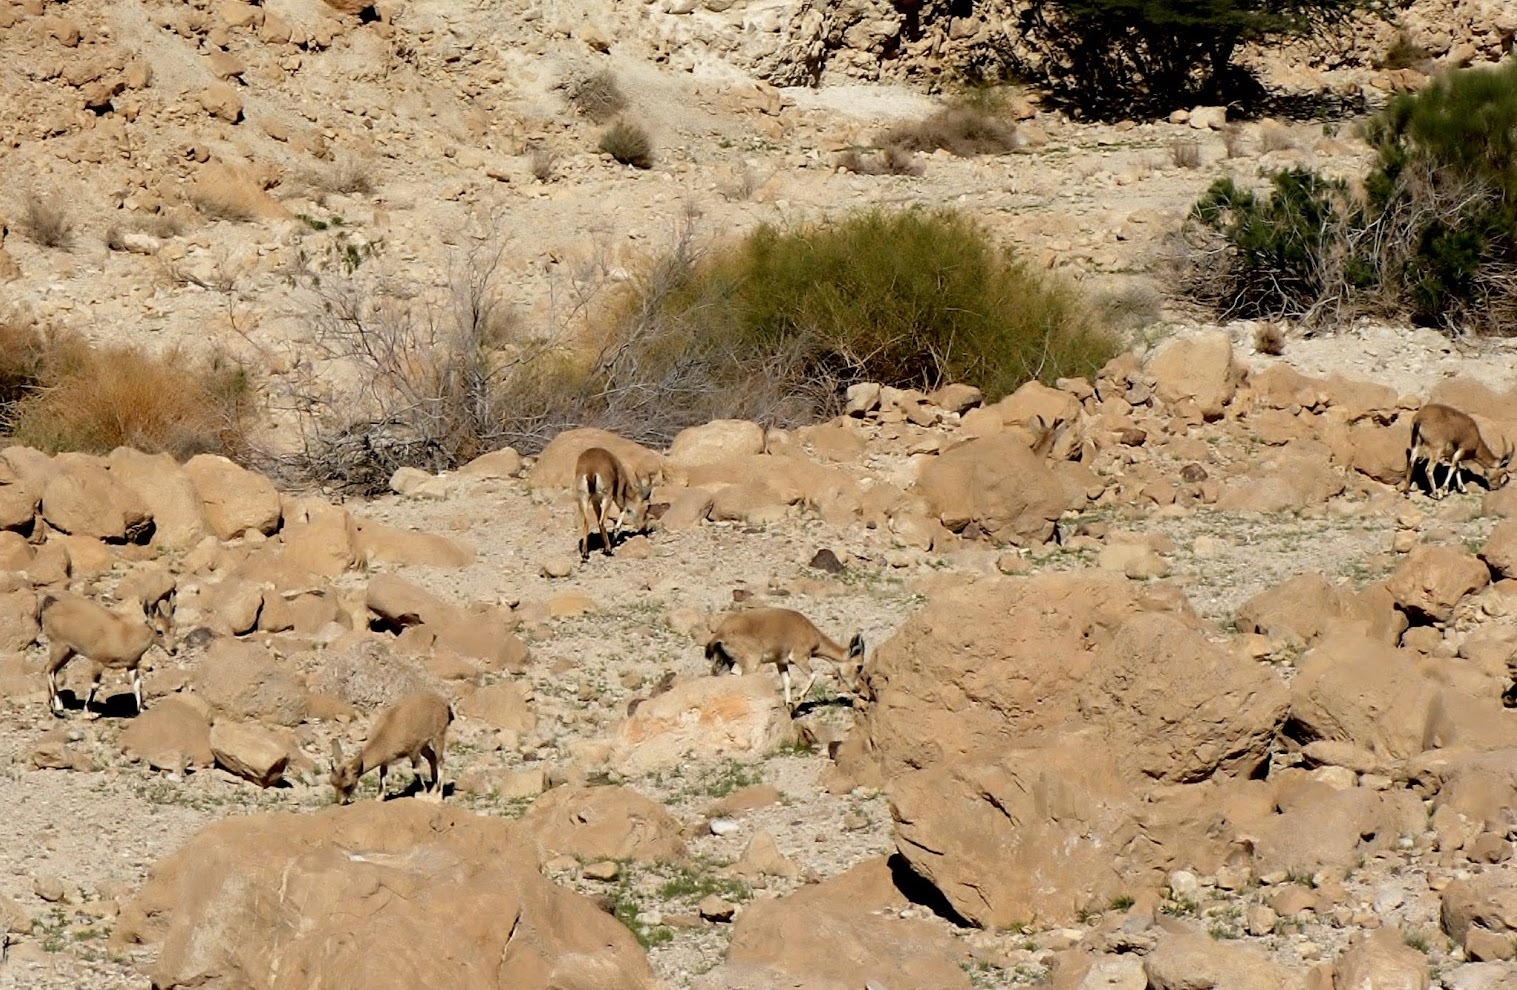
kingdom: Animalia
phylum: Chordata
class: Mammalia
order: Artiodactyla
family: Bovidae
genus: Capra
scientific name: Capra nubiana
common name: Nubian ibex
